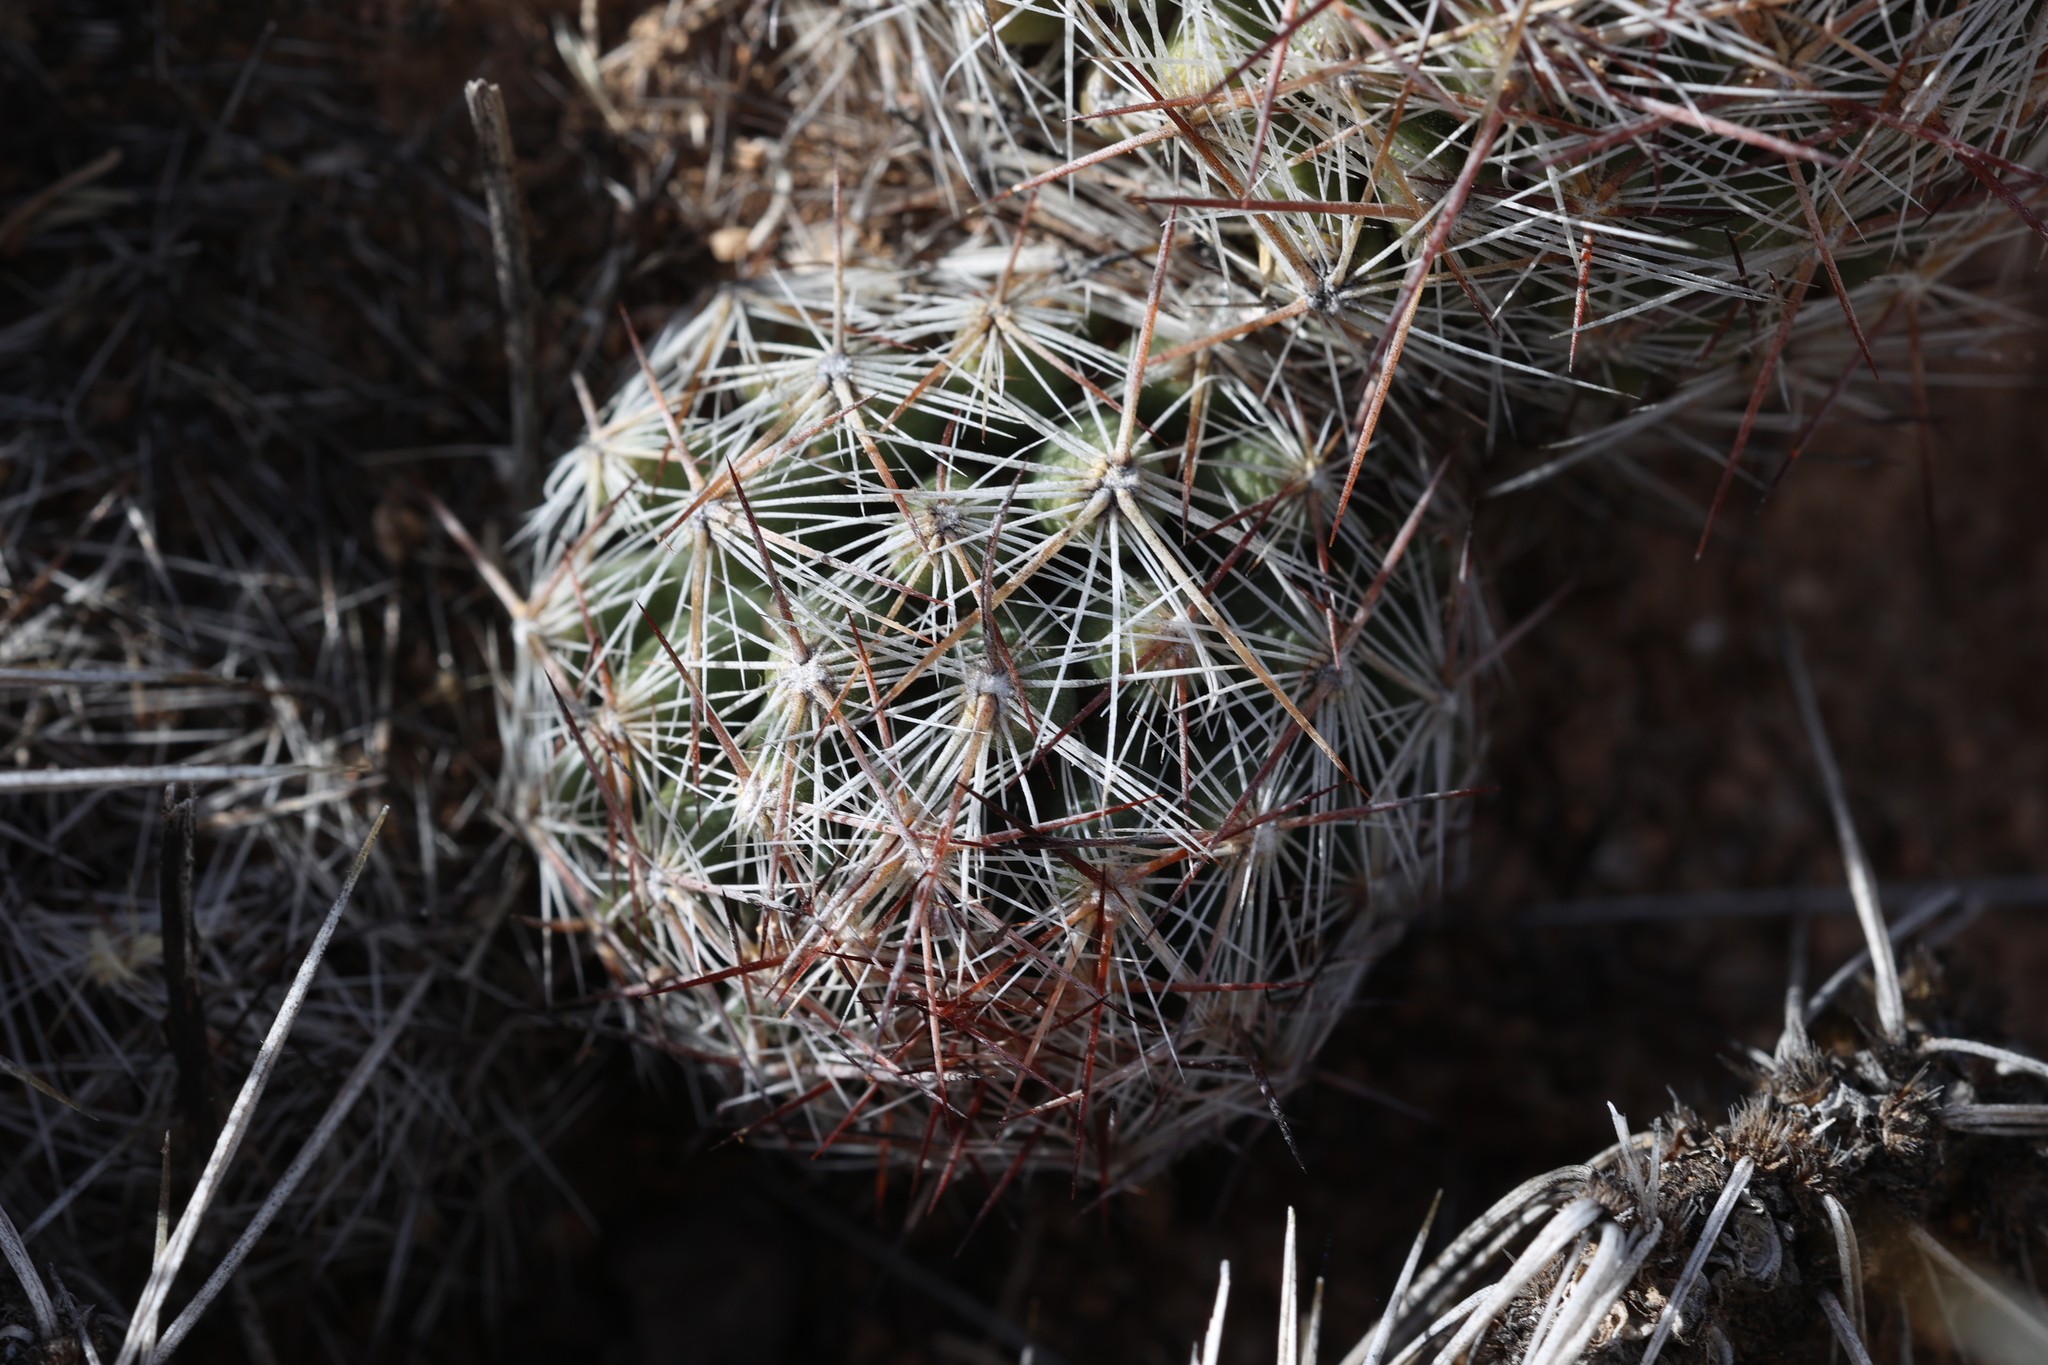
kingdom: Plantae
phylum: Tracheophyta
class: Magnoliopsida
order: Caryophyllales
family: Cactaceae
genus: Pelecyphora
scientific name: Pelecyphora vivipara
